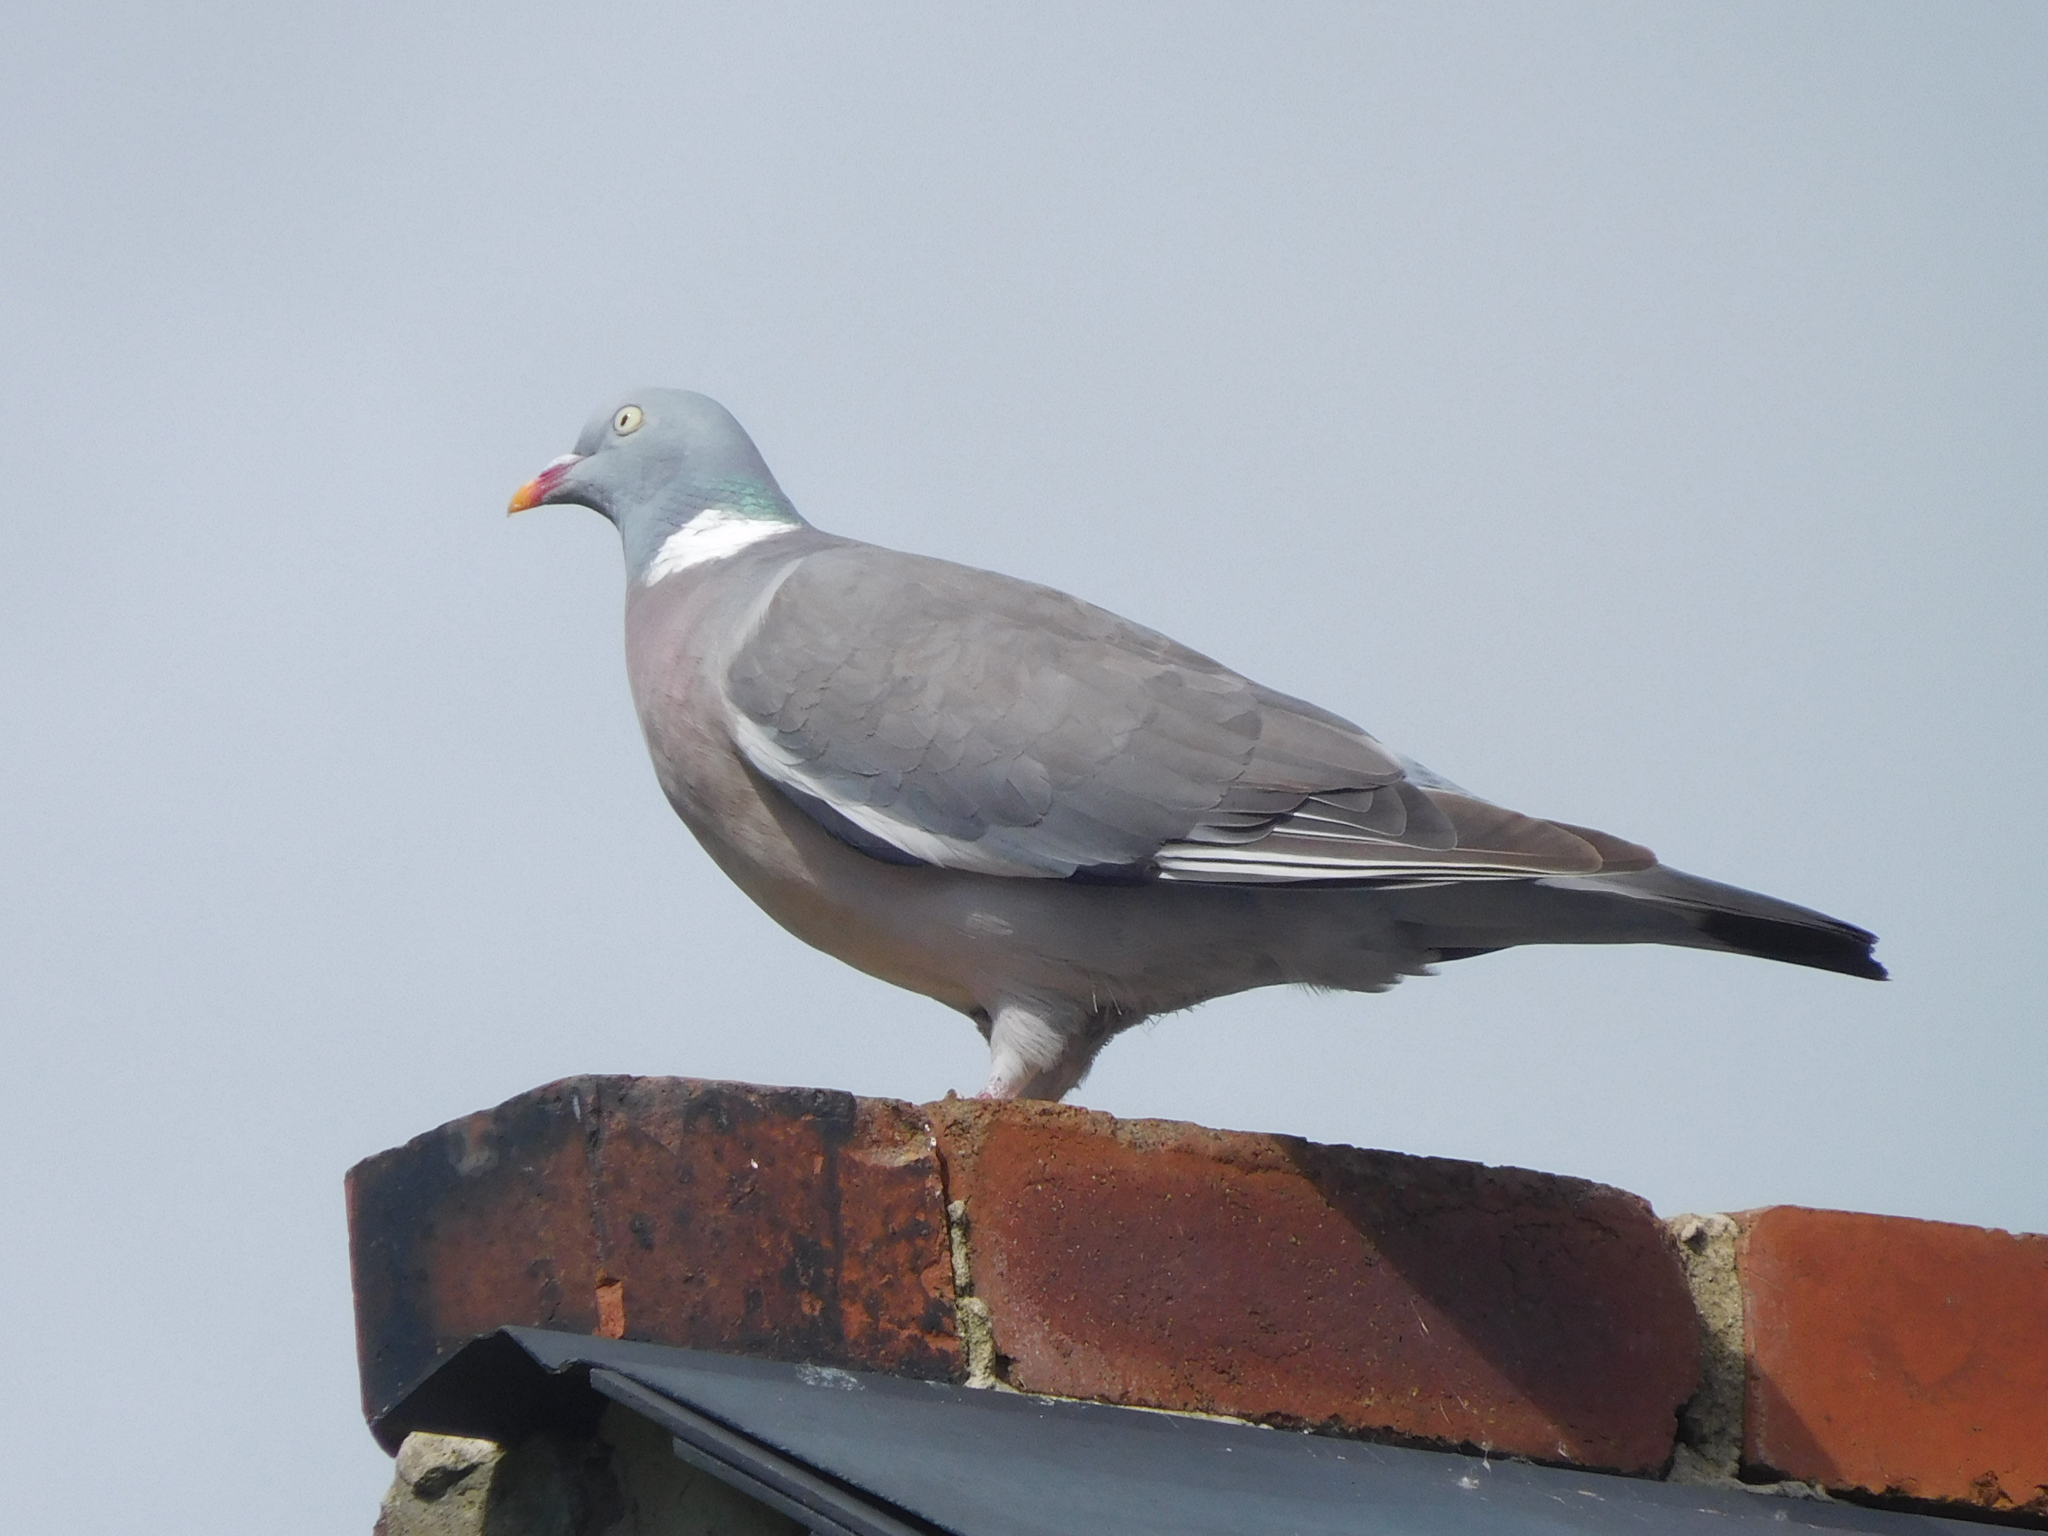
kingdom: Animalia
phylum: Chordata
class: Aves
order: Columbiformes
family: Columbidae
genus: Columba
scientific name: Columba palumbus
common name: Common wood pigeon
